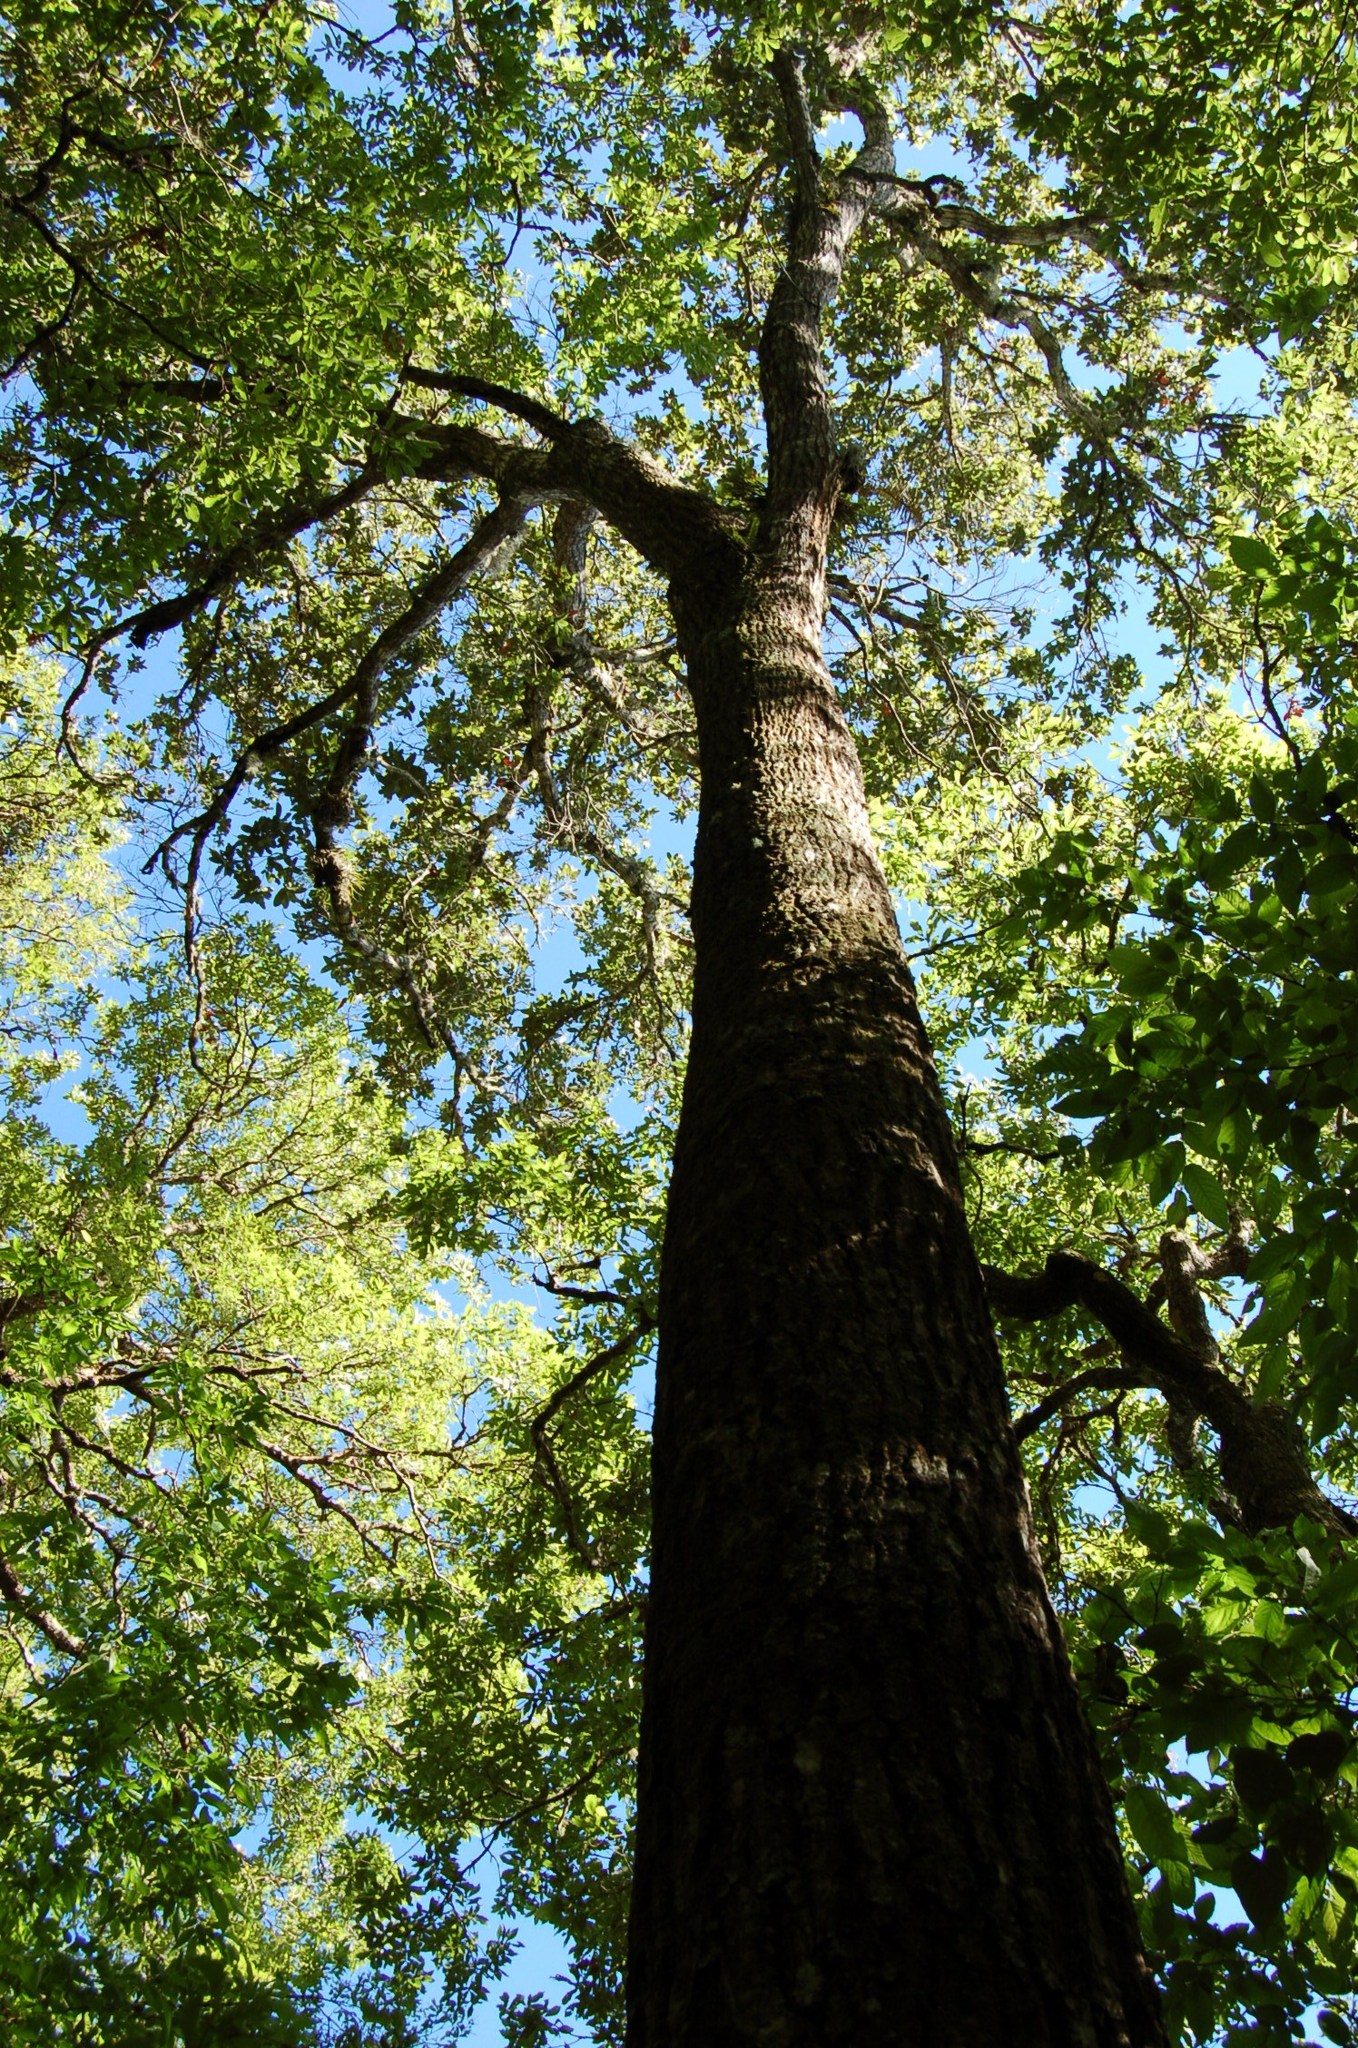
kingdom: Plantae
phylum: Tracheophyta
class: Magnoliopsida
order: Fagales
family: Fagaceae
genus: Quercus
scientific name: Quercus paxtalensis
